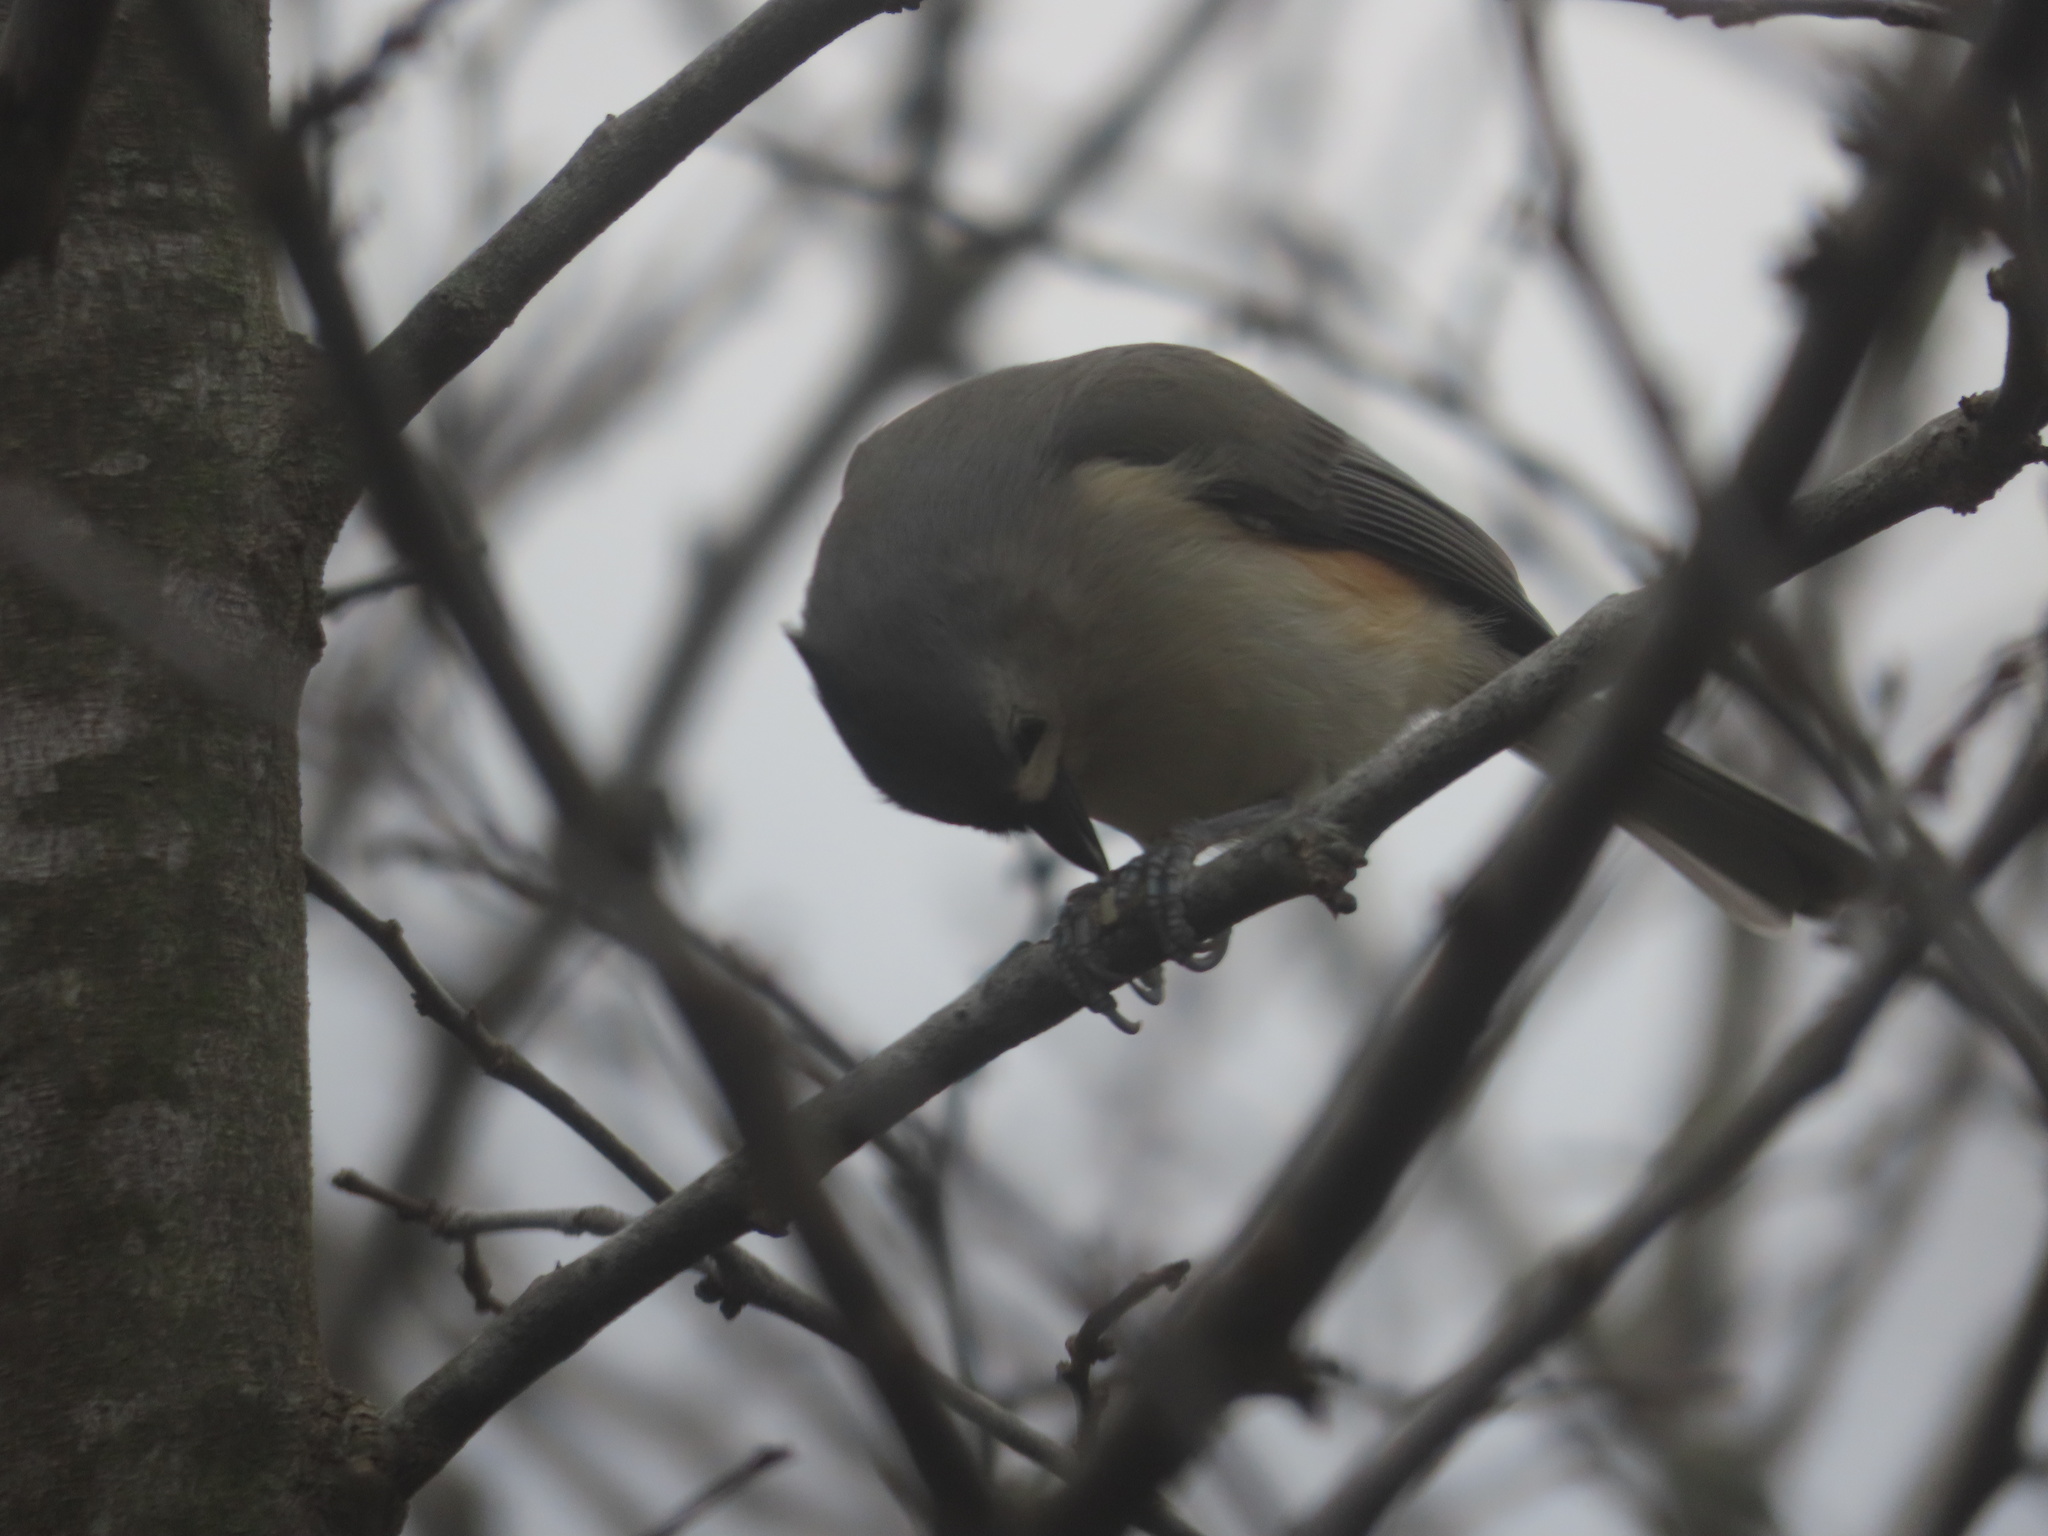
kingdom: Animalia
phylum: Chordata
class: Aves
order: Passeriformes
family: Paridae
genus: Baeolophus
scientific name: Baeolophus bicolor
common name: Tufted titmouse
